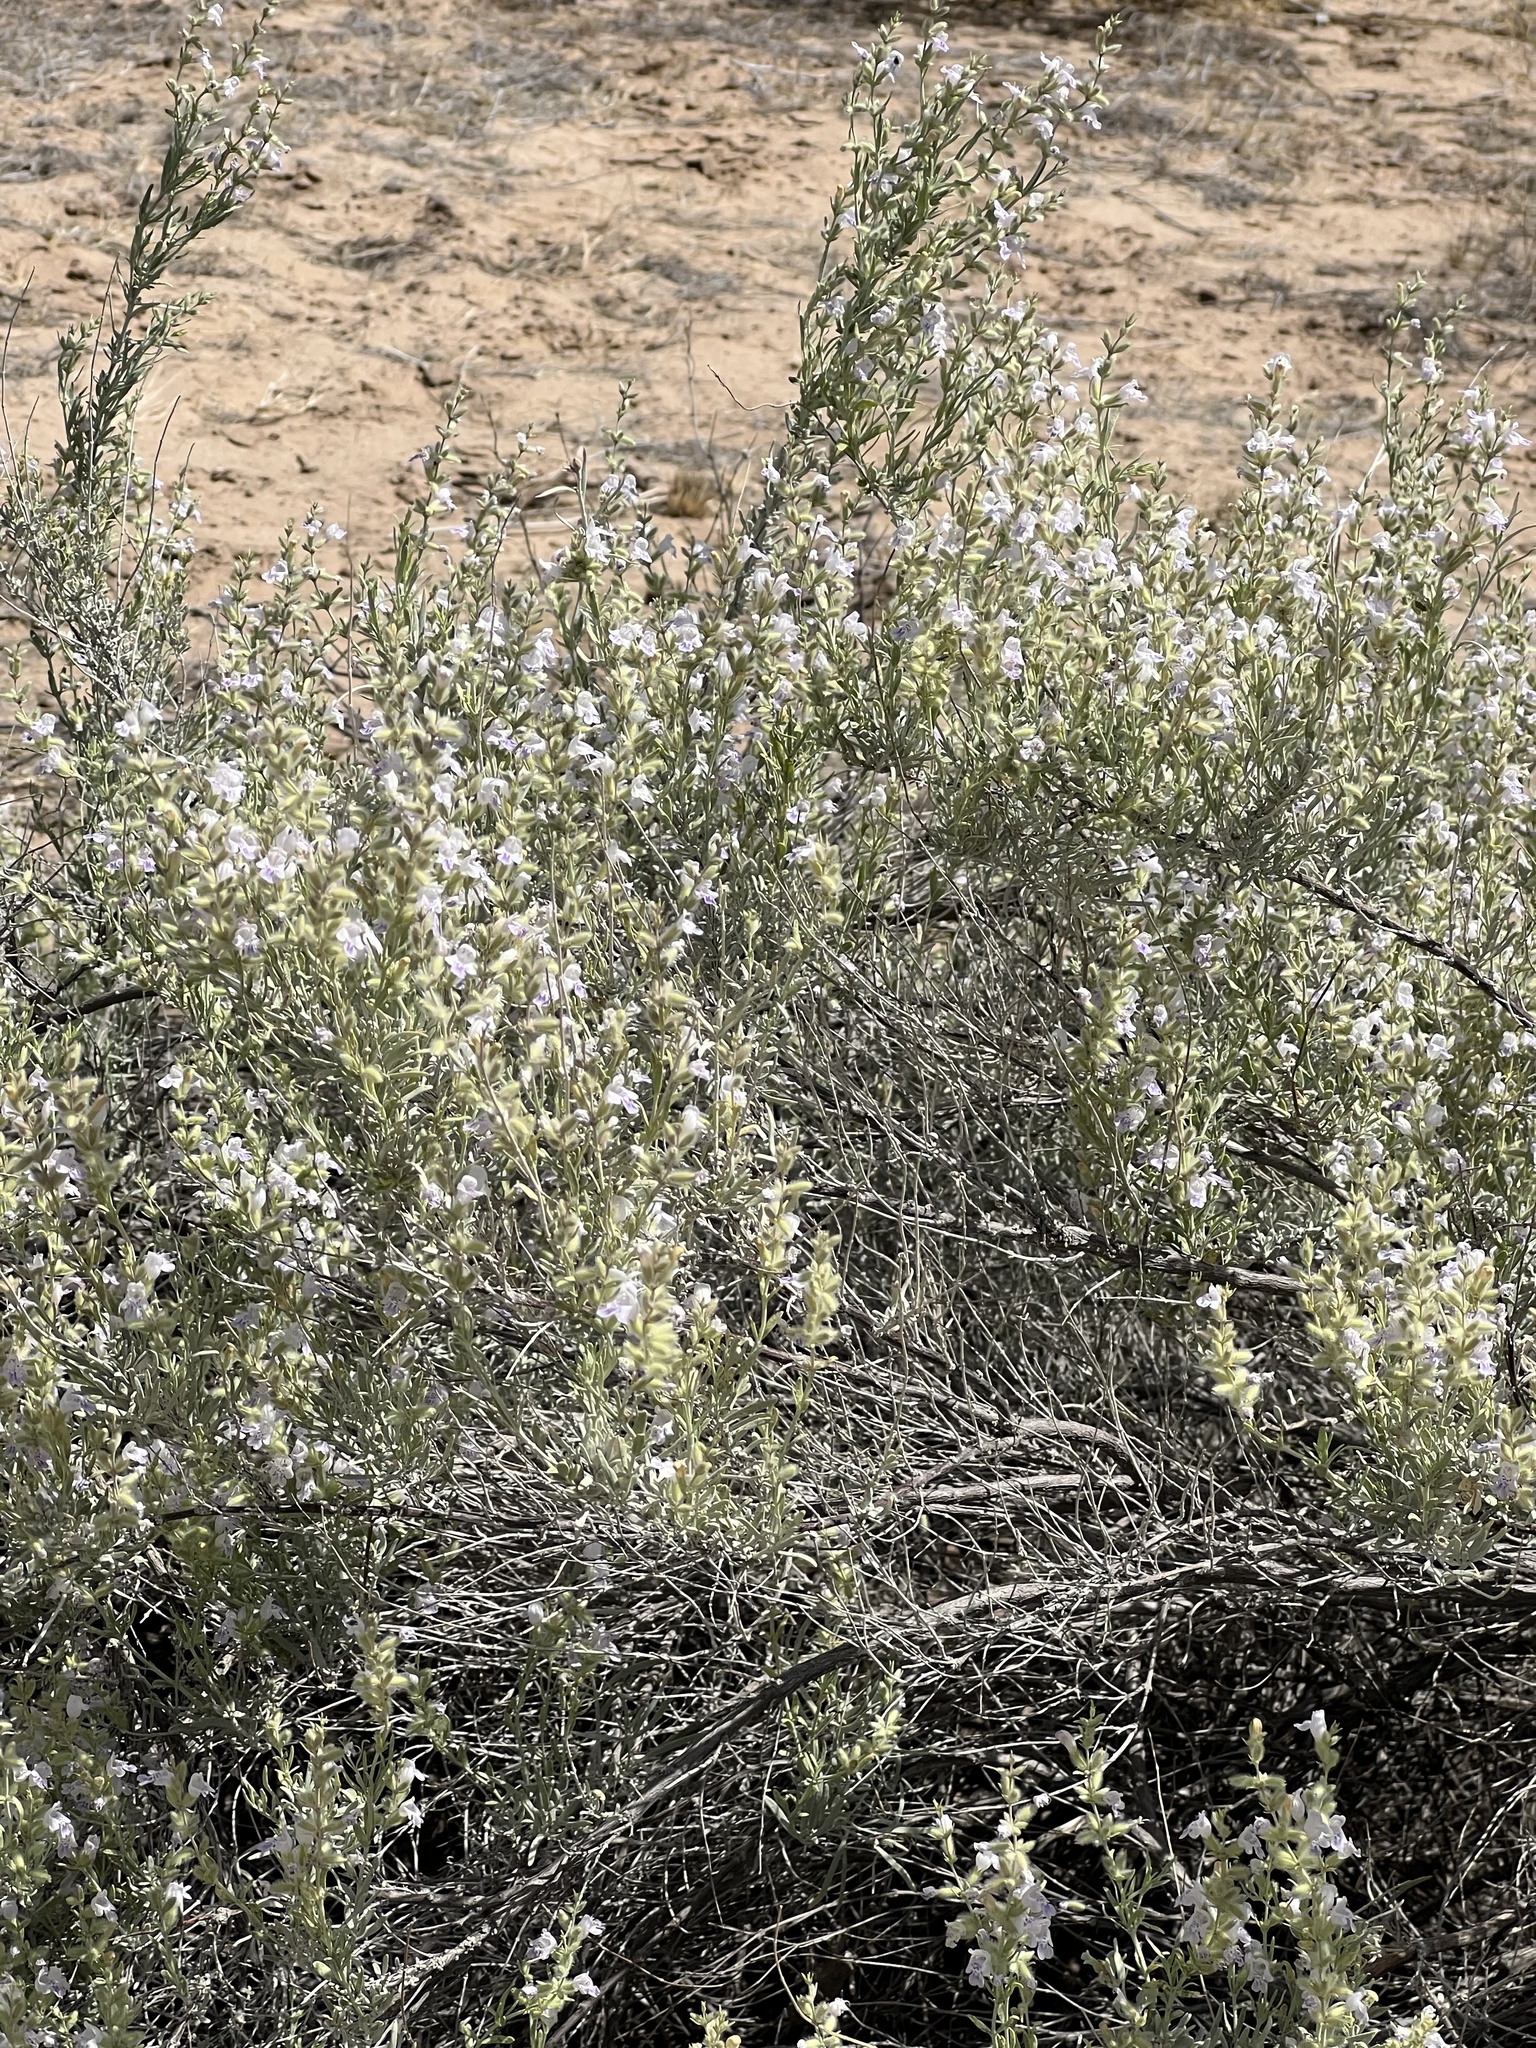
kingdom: Plantae
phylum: Tracheophyta
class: Magnoliopsida
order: Lamiales
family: Lamiaceae
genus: Poliomintha
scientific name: Poliomintha incana
